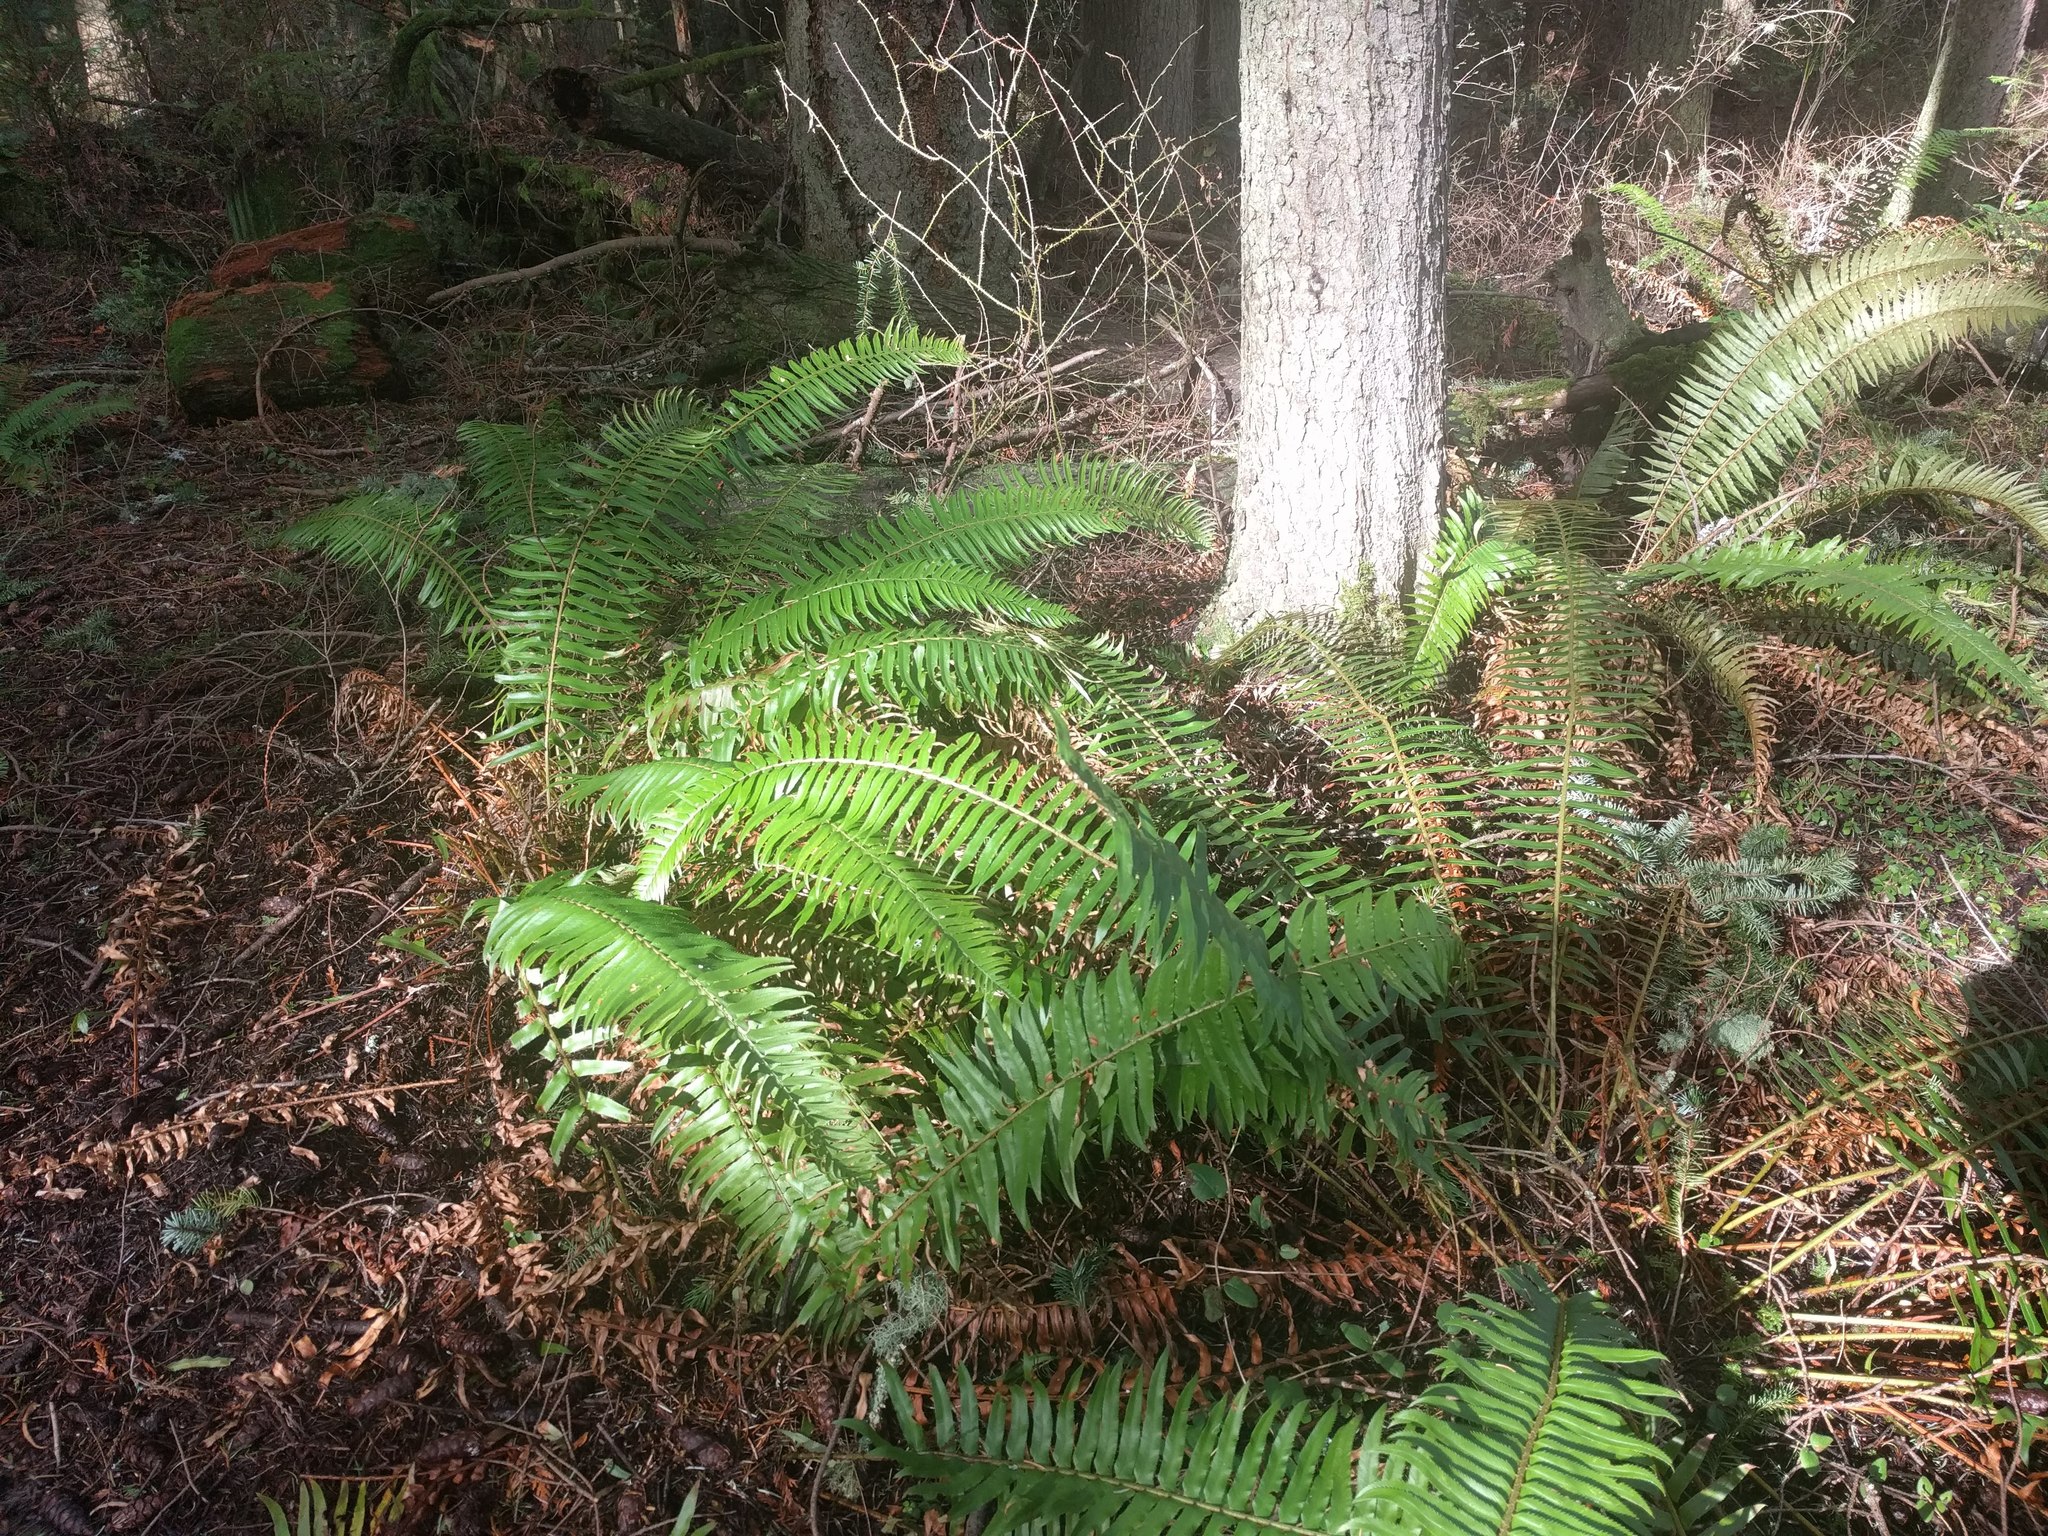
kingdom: Plantae
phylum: Tracheophyta
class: Polypodiopsida
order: Polypodiales
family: Dryopteridaceae
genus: Polystichum
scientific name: Polystichum munitum
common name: Western sword-fern
